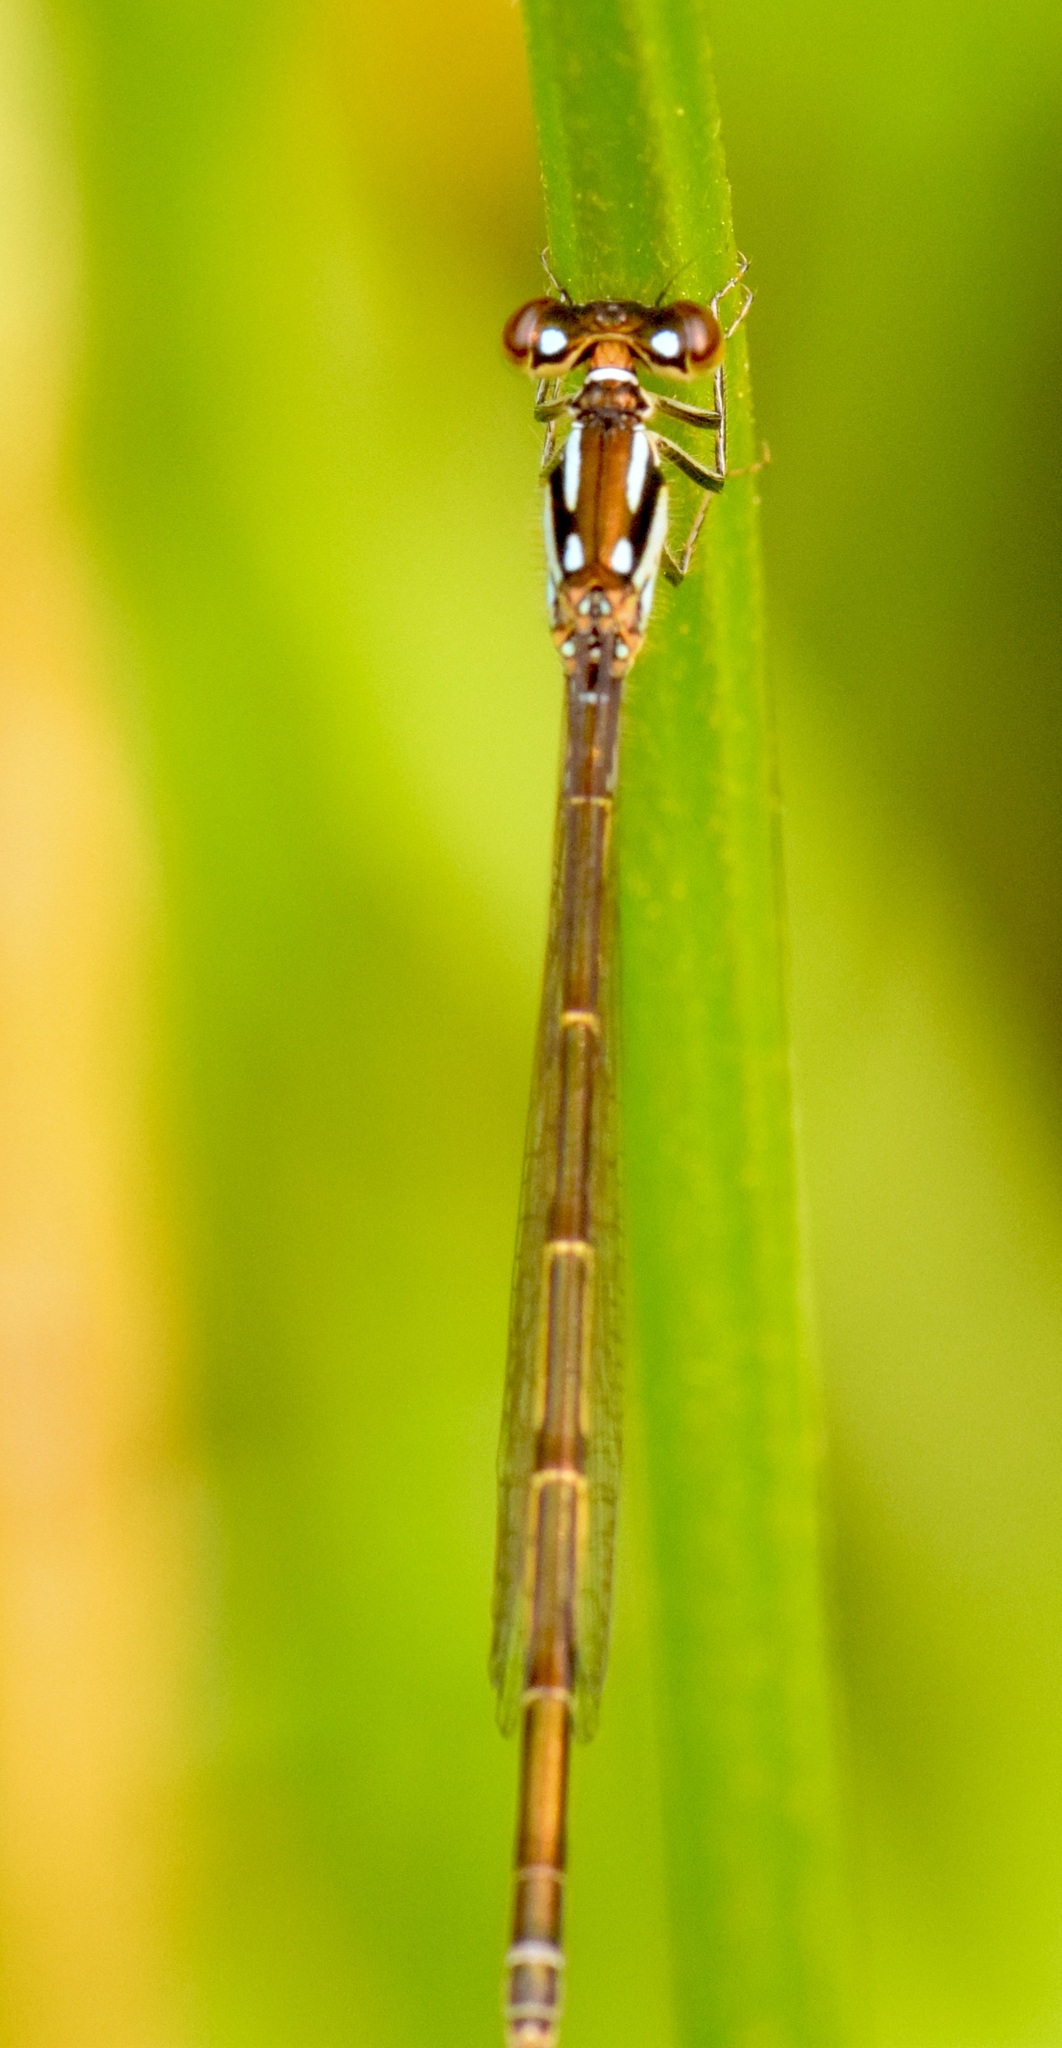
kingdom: Animalia
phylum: Arthropoda
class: Insecta
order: Odonata
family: Coenagrionidae
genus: Ischnura
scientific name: Ischnura posita
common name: Fragile forktail
